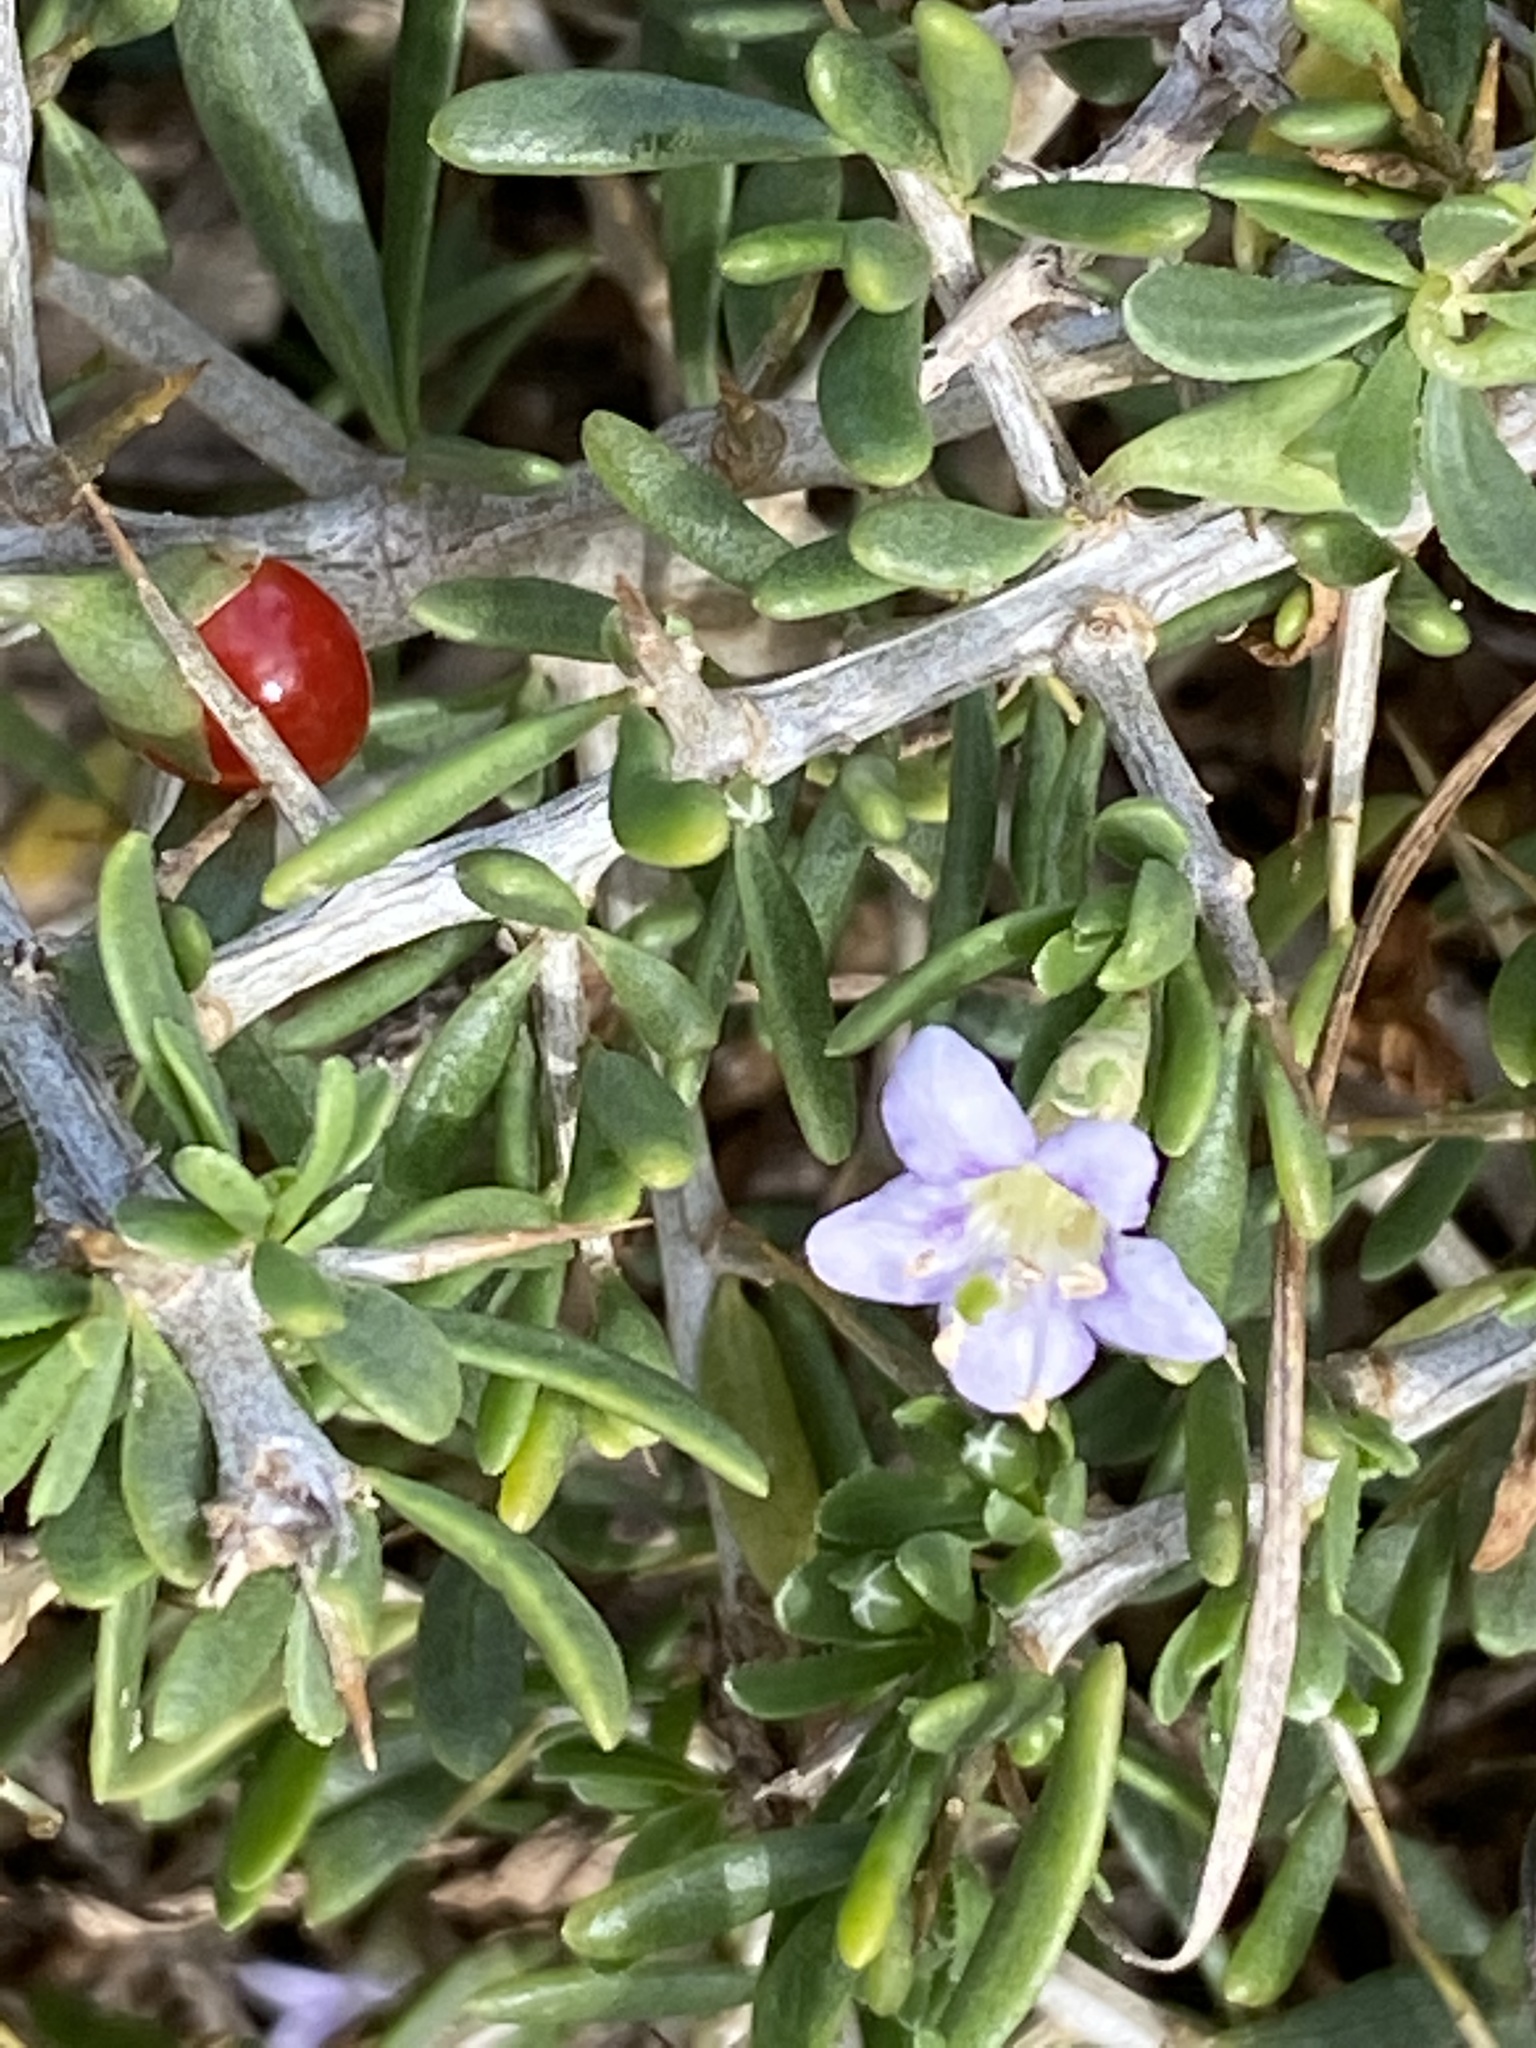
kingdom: Plantae
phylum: Tracheophyta
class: Magnoliopsida
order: Solanales
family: Solanaceae
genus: Lycium
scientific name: Lycium pumilum
